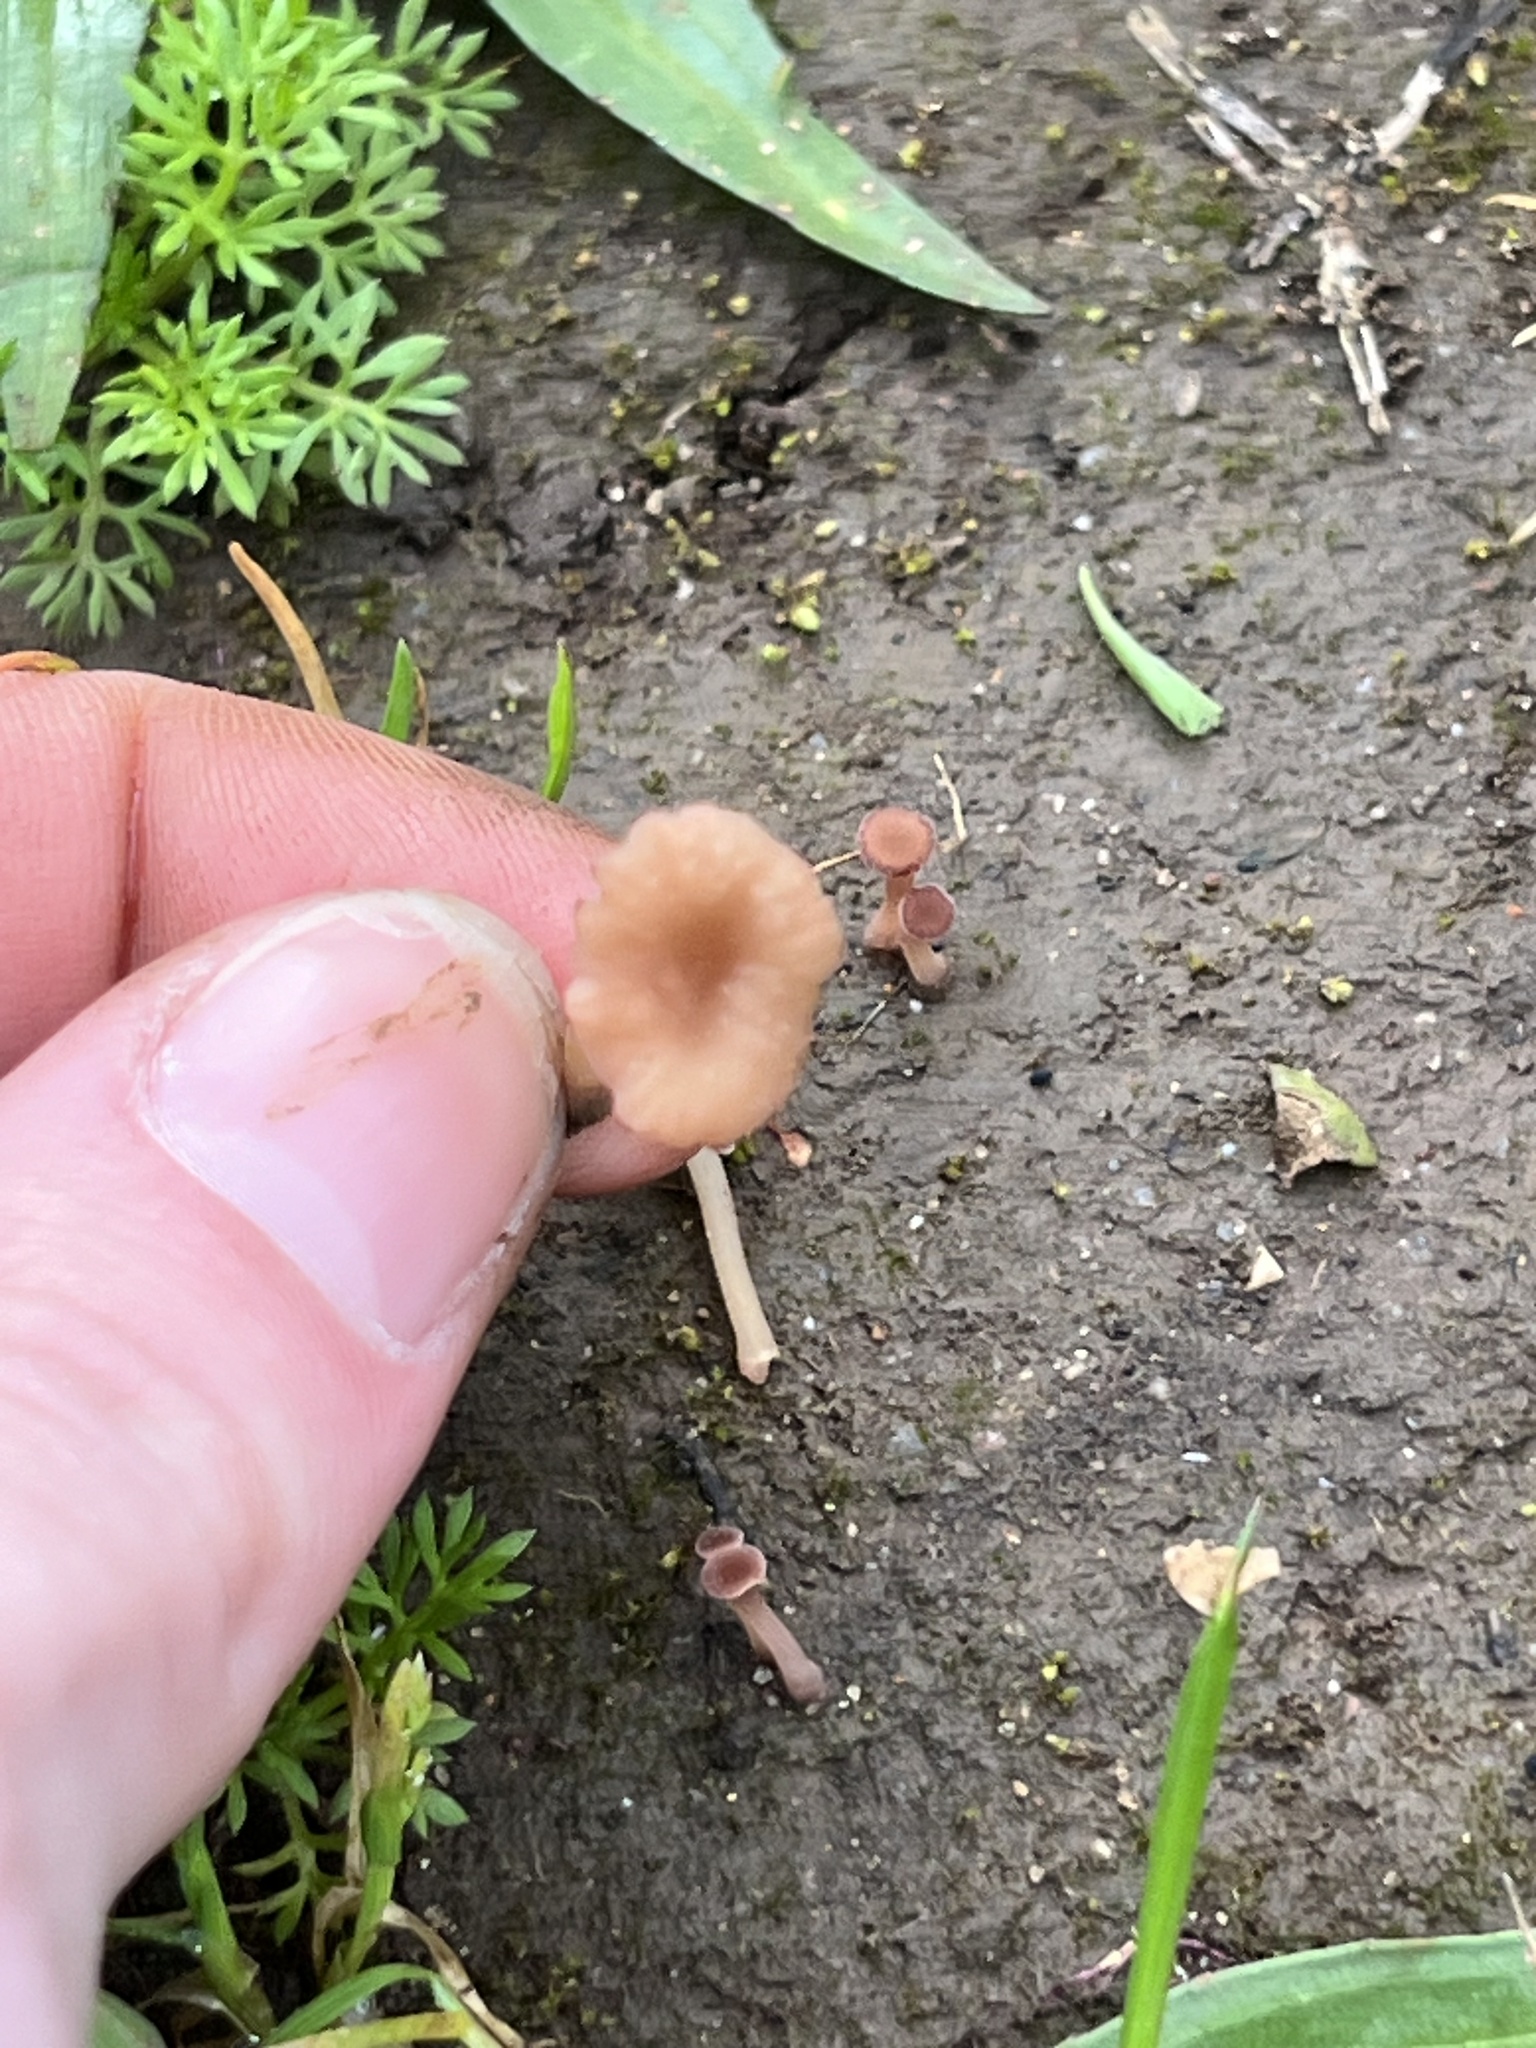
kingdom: Fungi
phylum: Basidiomycota
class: Agaricomycetes
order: Hymenochaetales
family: Rickenellaceae
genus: Contumyces
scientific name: Contumyces rosellus
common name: Rosy navel
